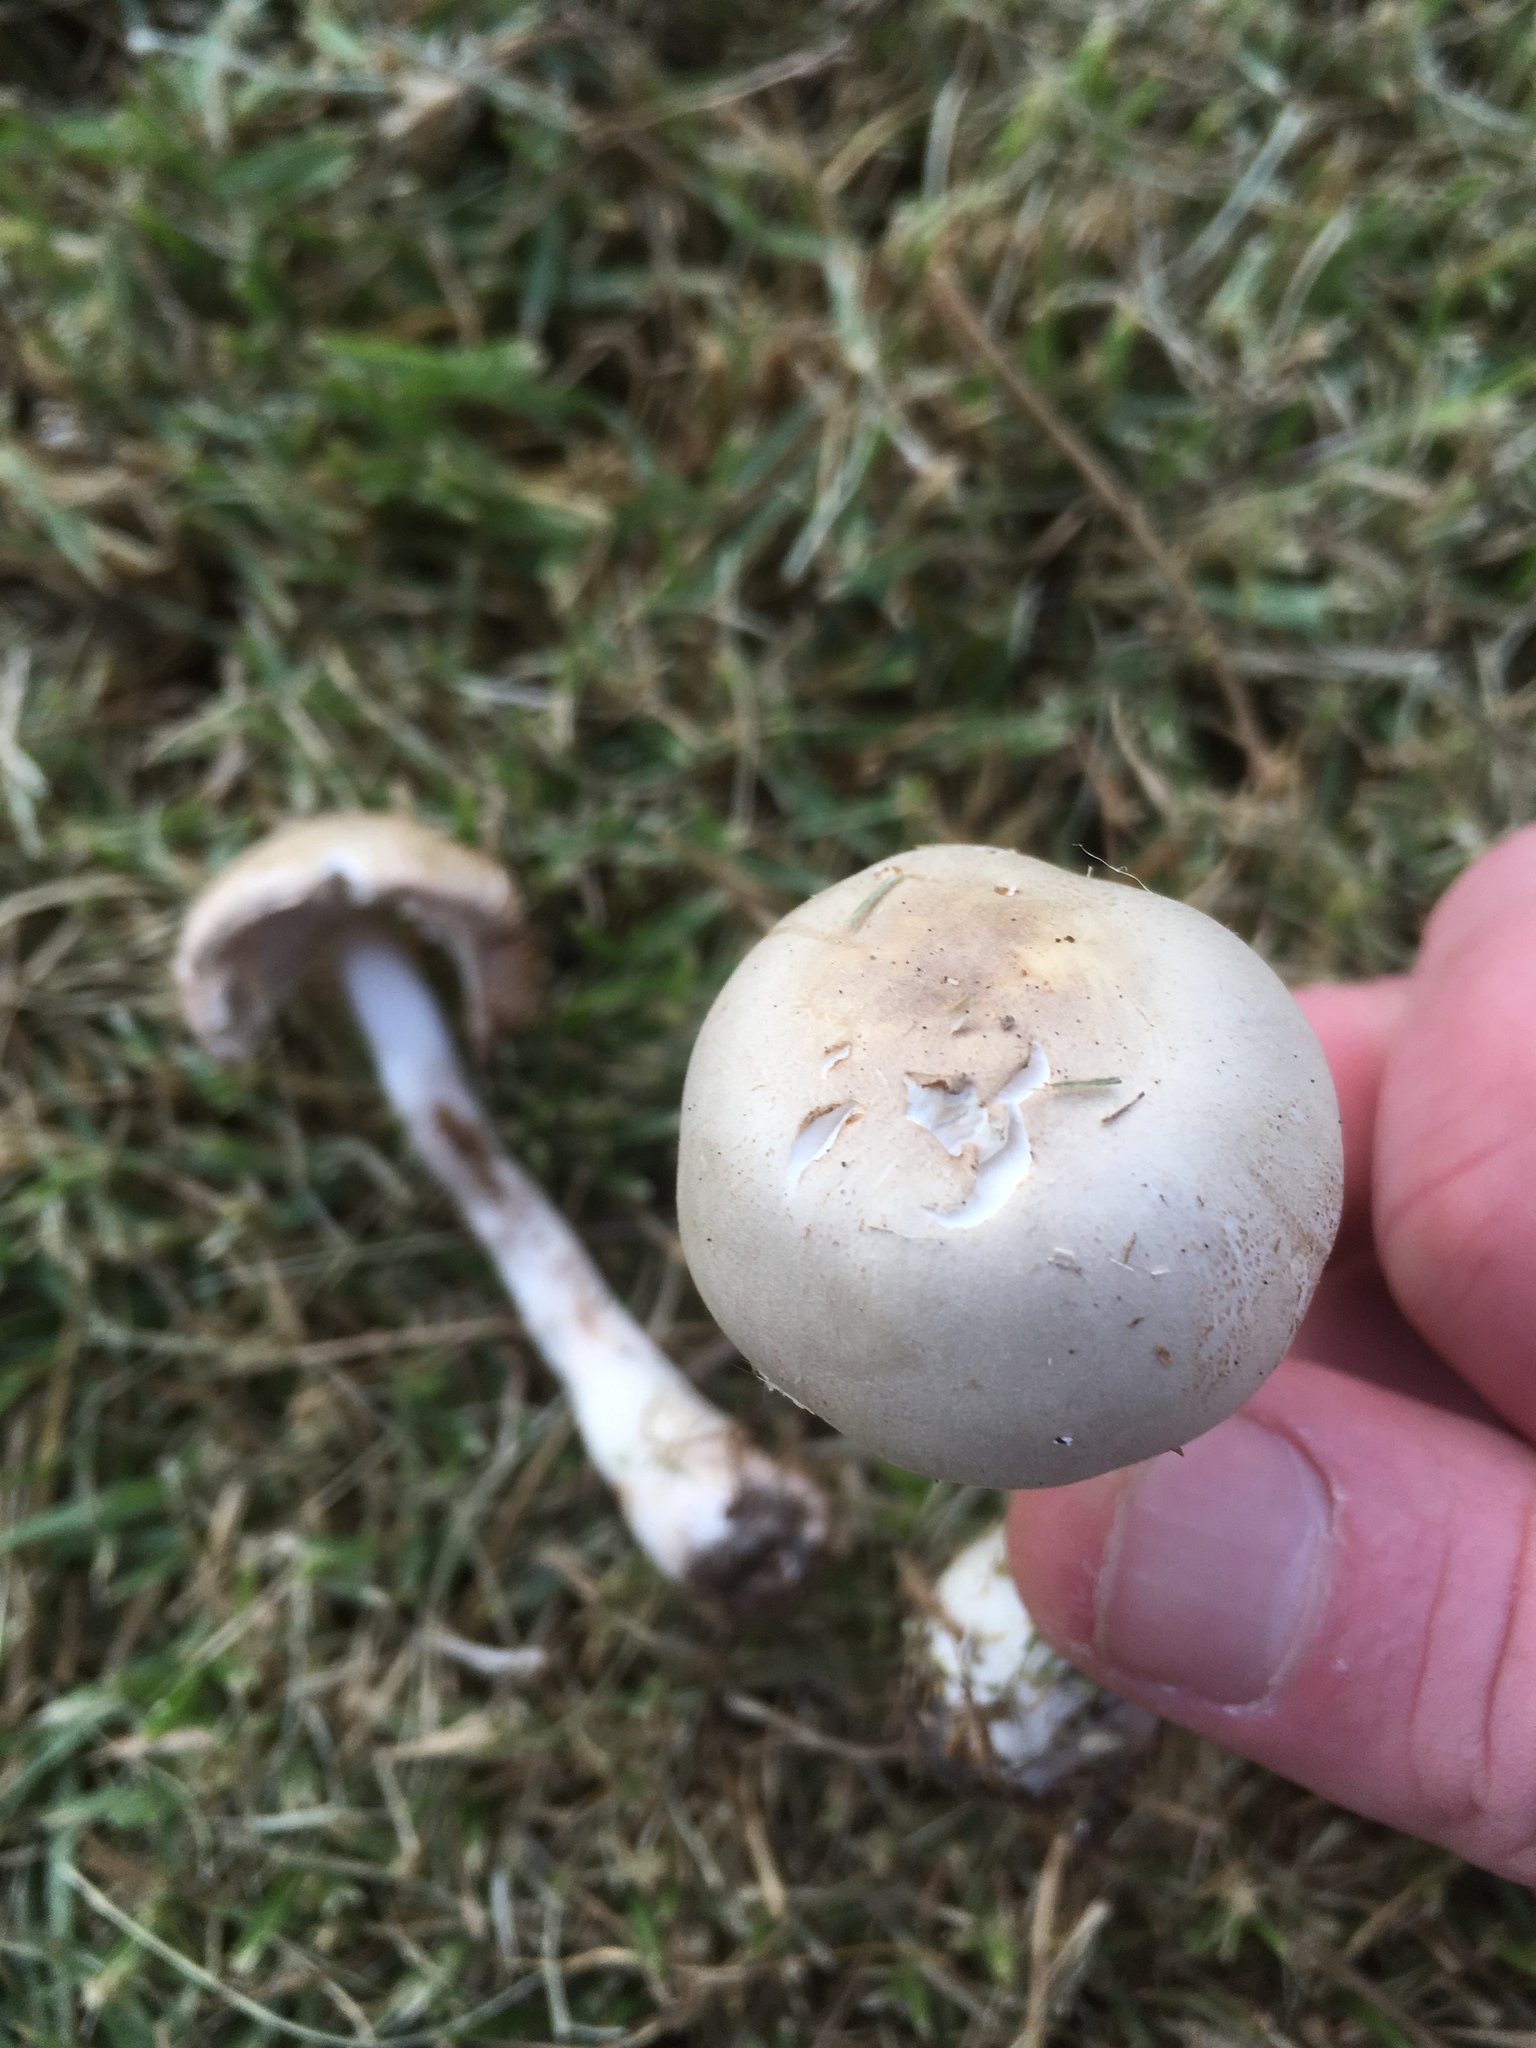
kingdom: Fungi
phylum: Basidiomycota
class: Agaricomycetes
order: Agaricales
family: Agaricaceae
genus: Leucoagaricus
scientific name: Leucoagaricus leucothites
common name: White dapperling
